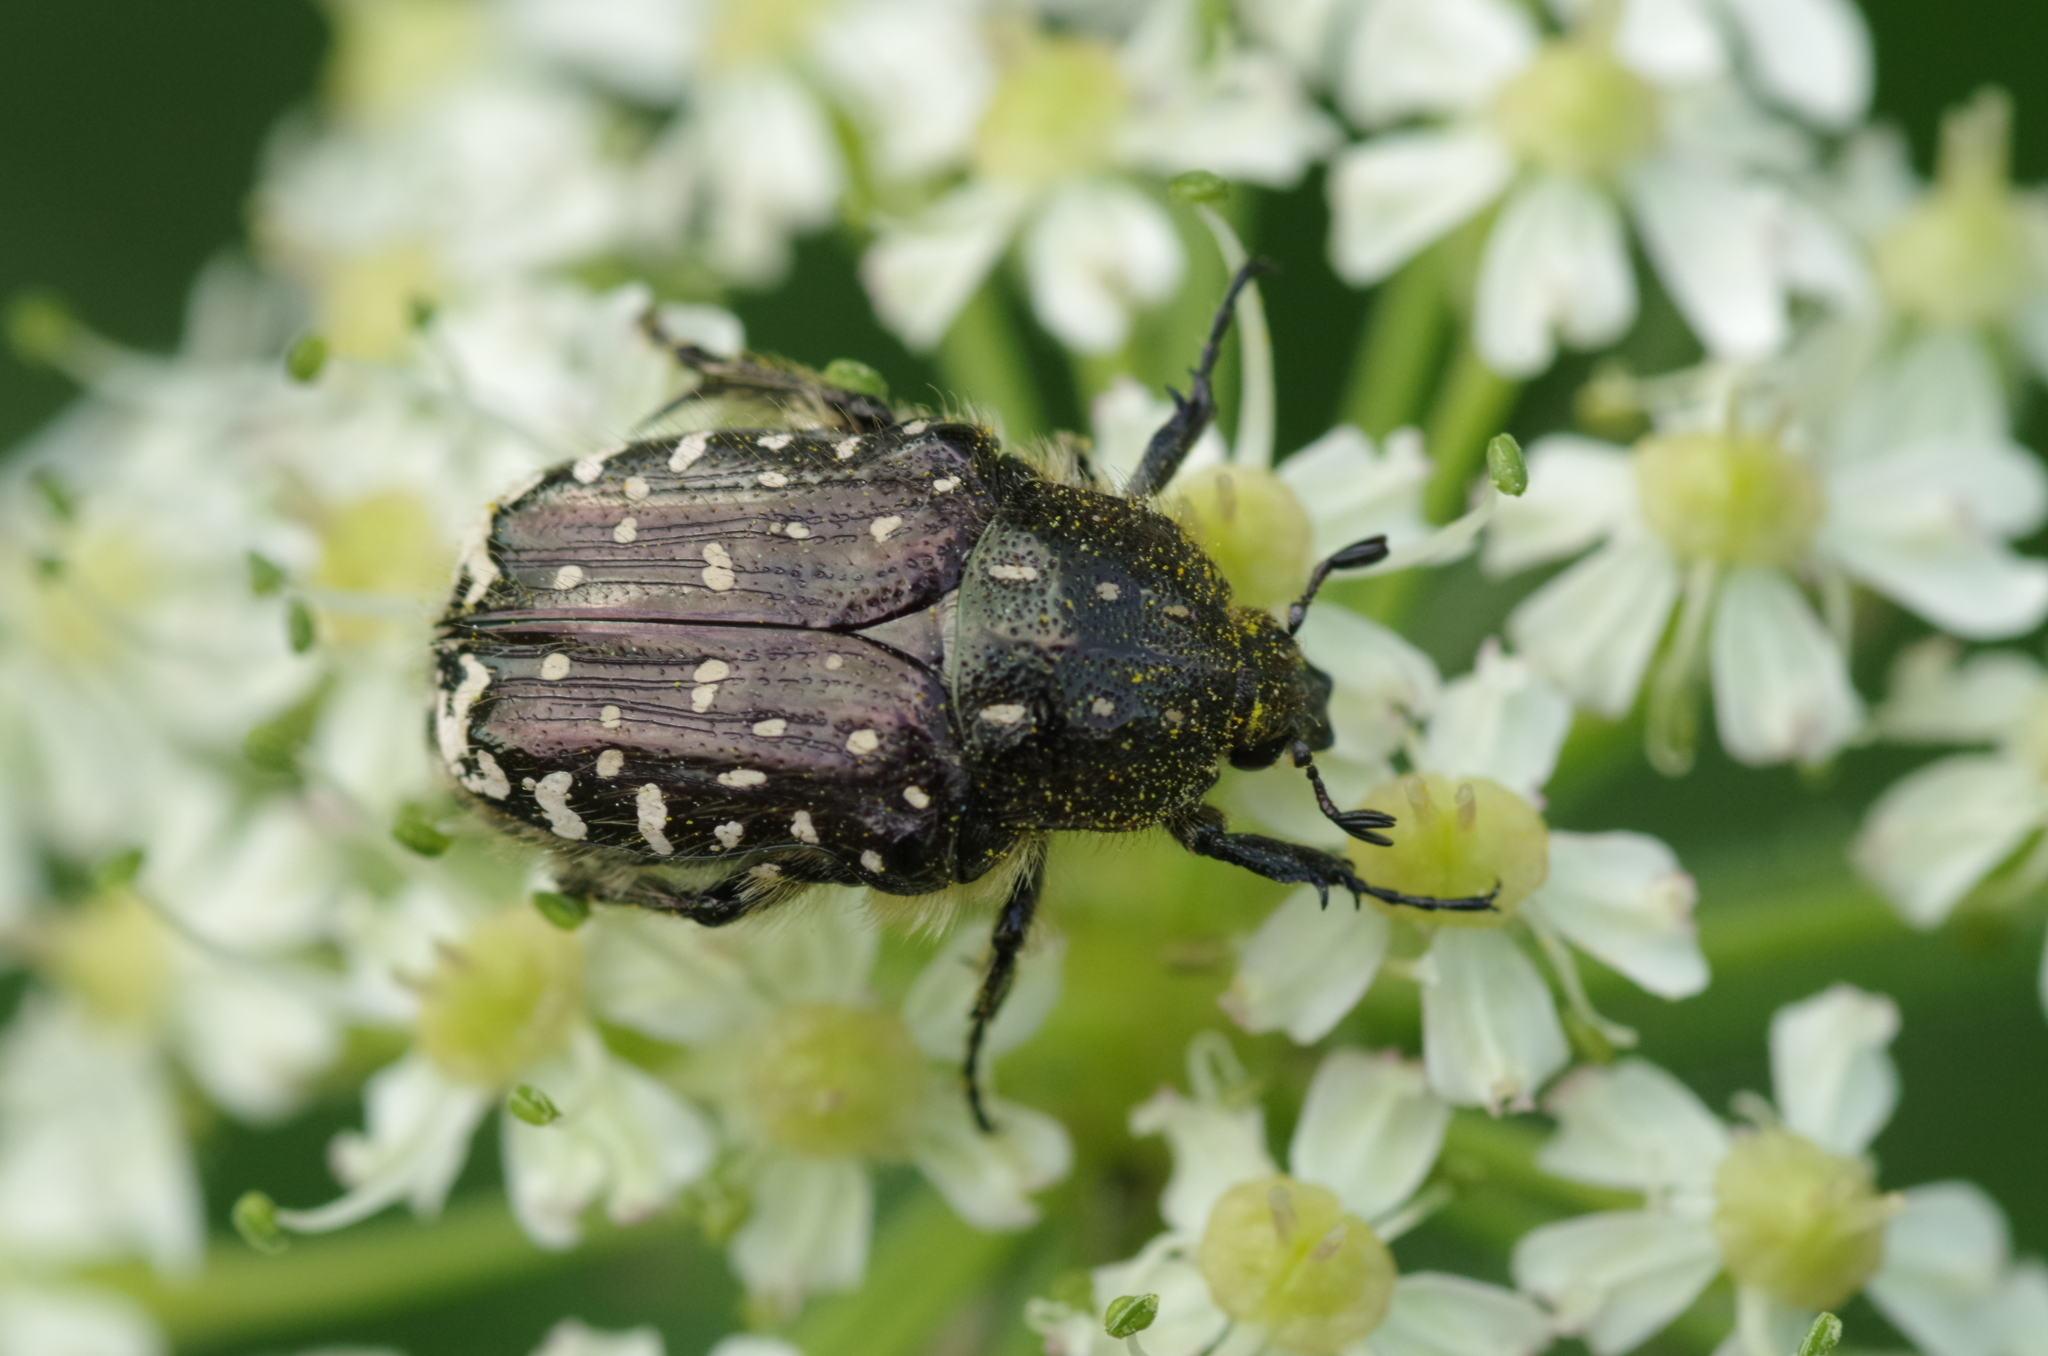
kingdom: Animalia
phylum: Arthropoda
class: Insecta
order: Coleoptera
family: Scarabaeidae
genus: Oxythyrea
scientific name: Oxythyrea funesta
